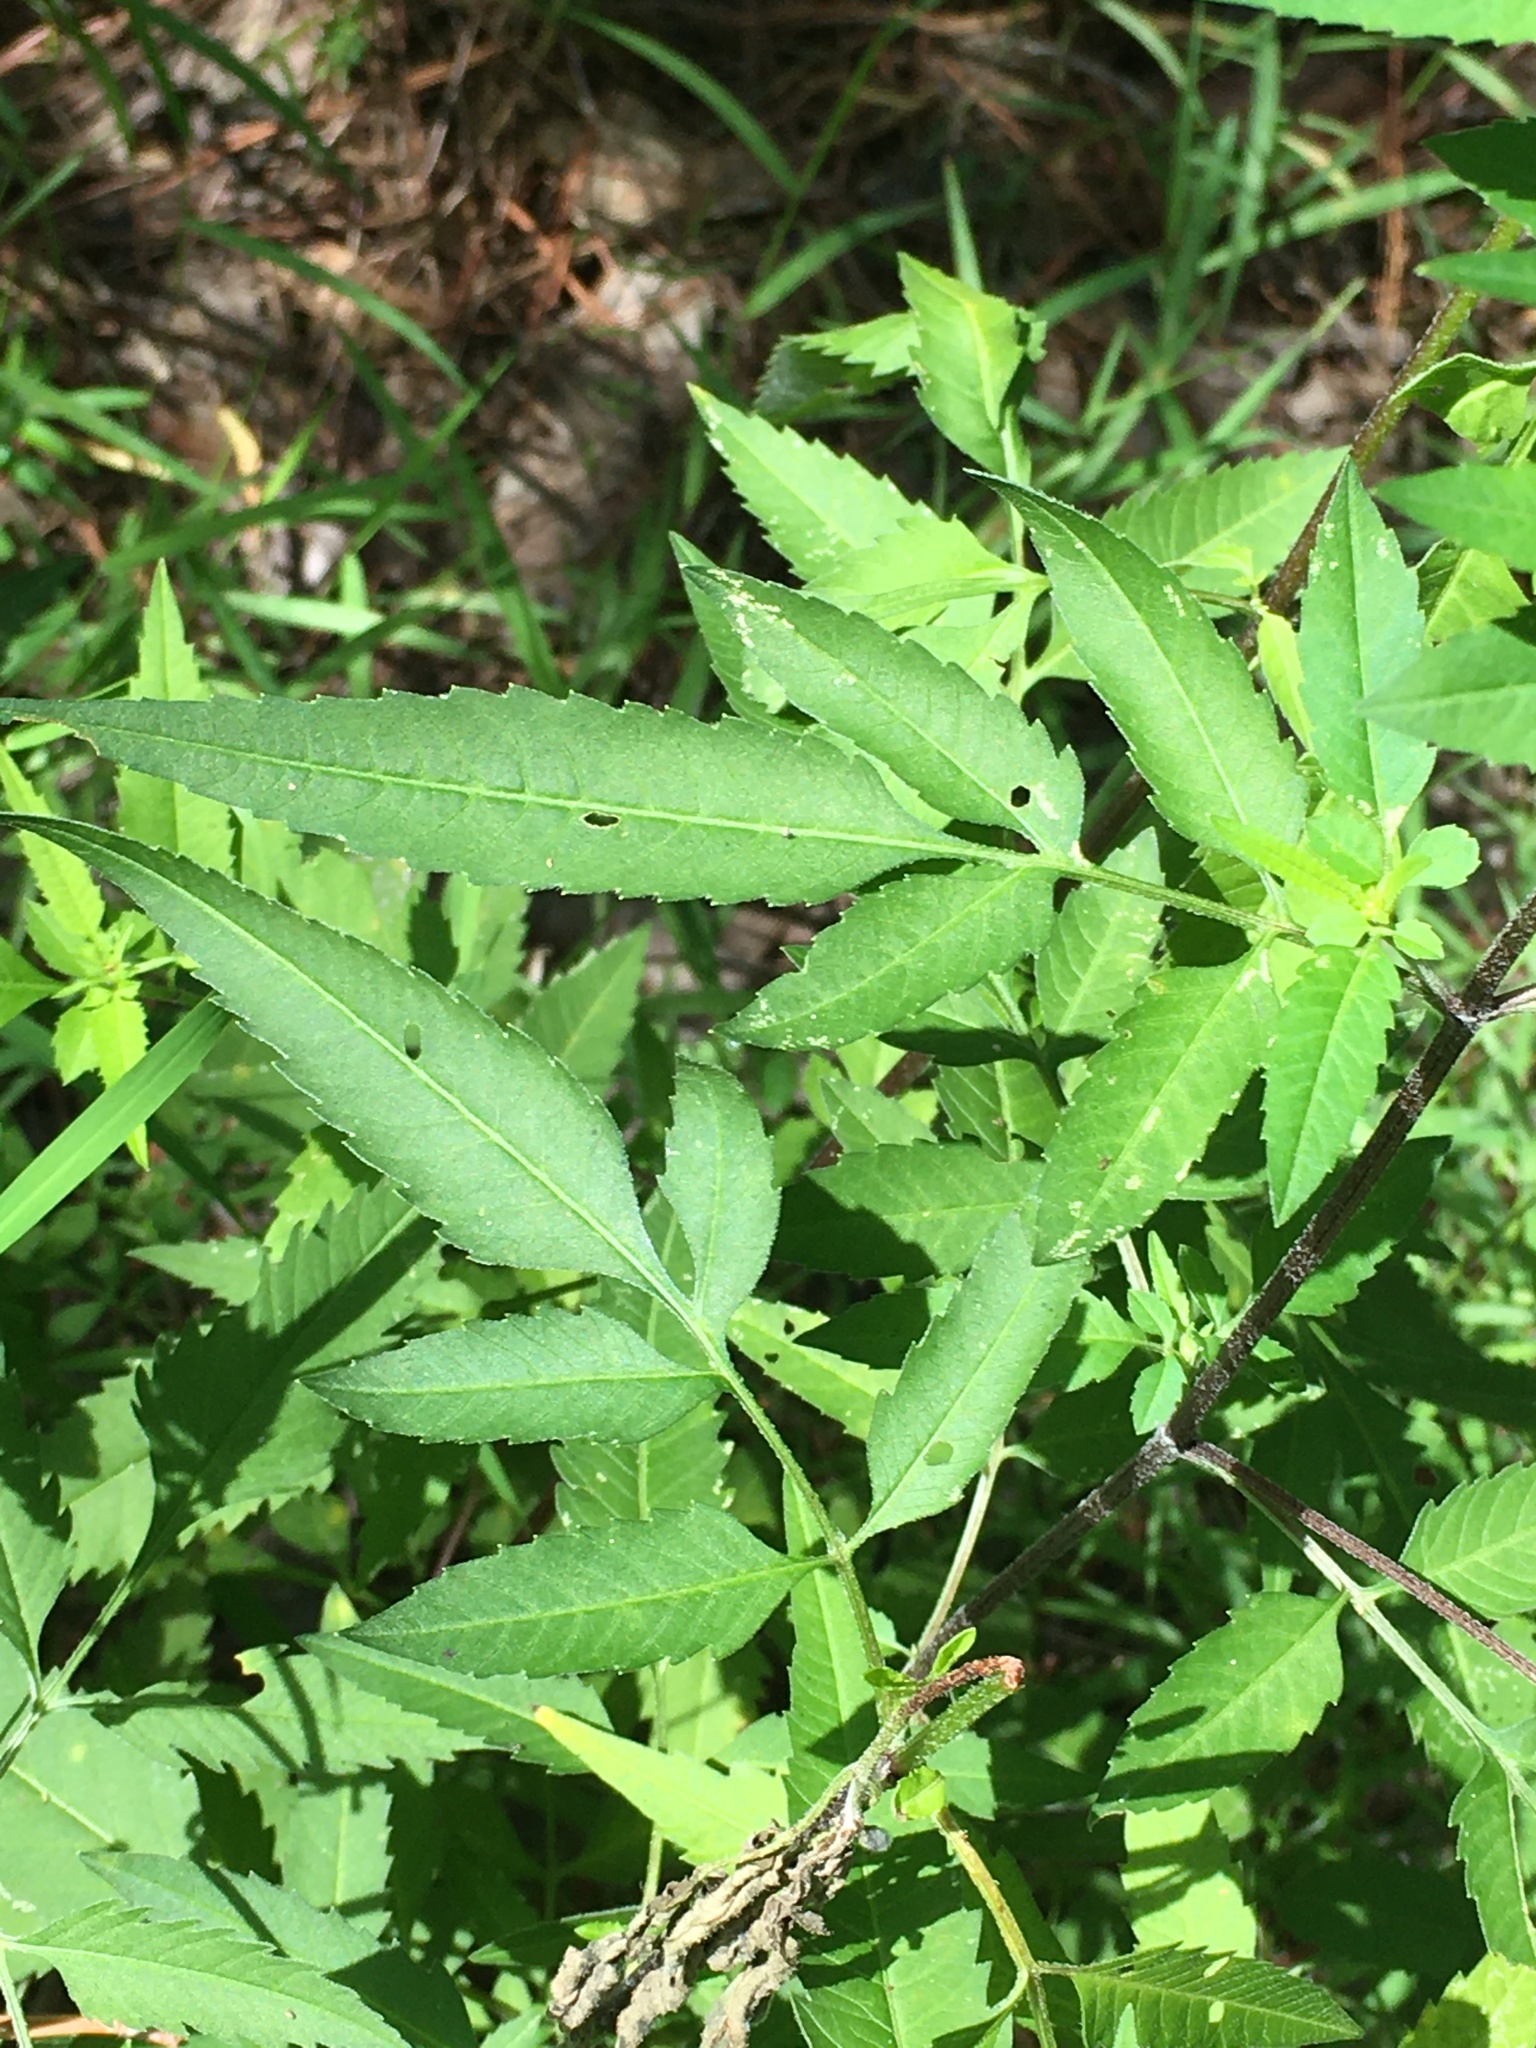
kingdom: Plantae
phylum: Tracheophyta
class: Magnoliopsida
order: Asterales
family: Asteraceae
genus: Bidens
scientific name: Bidens aristosa
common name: Western tickseed
